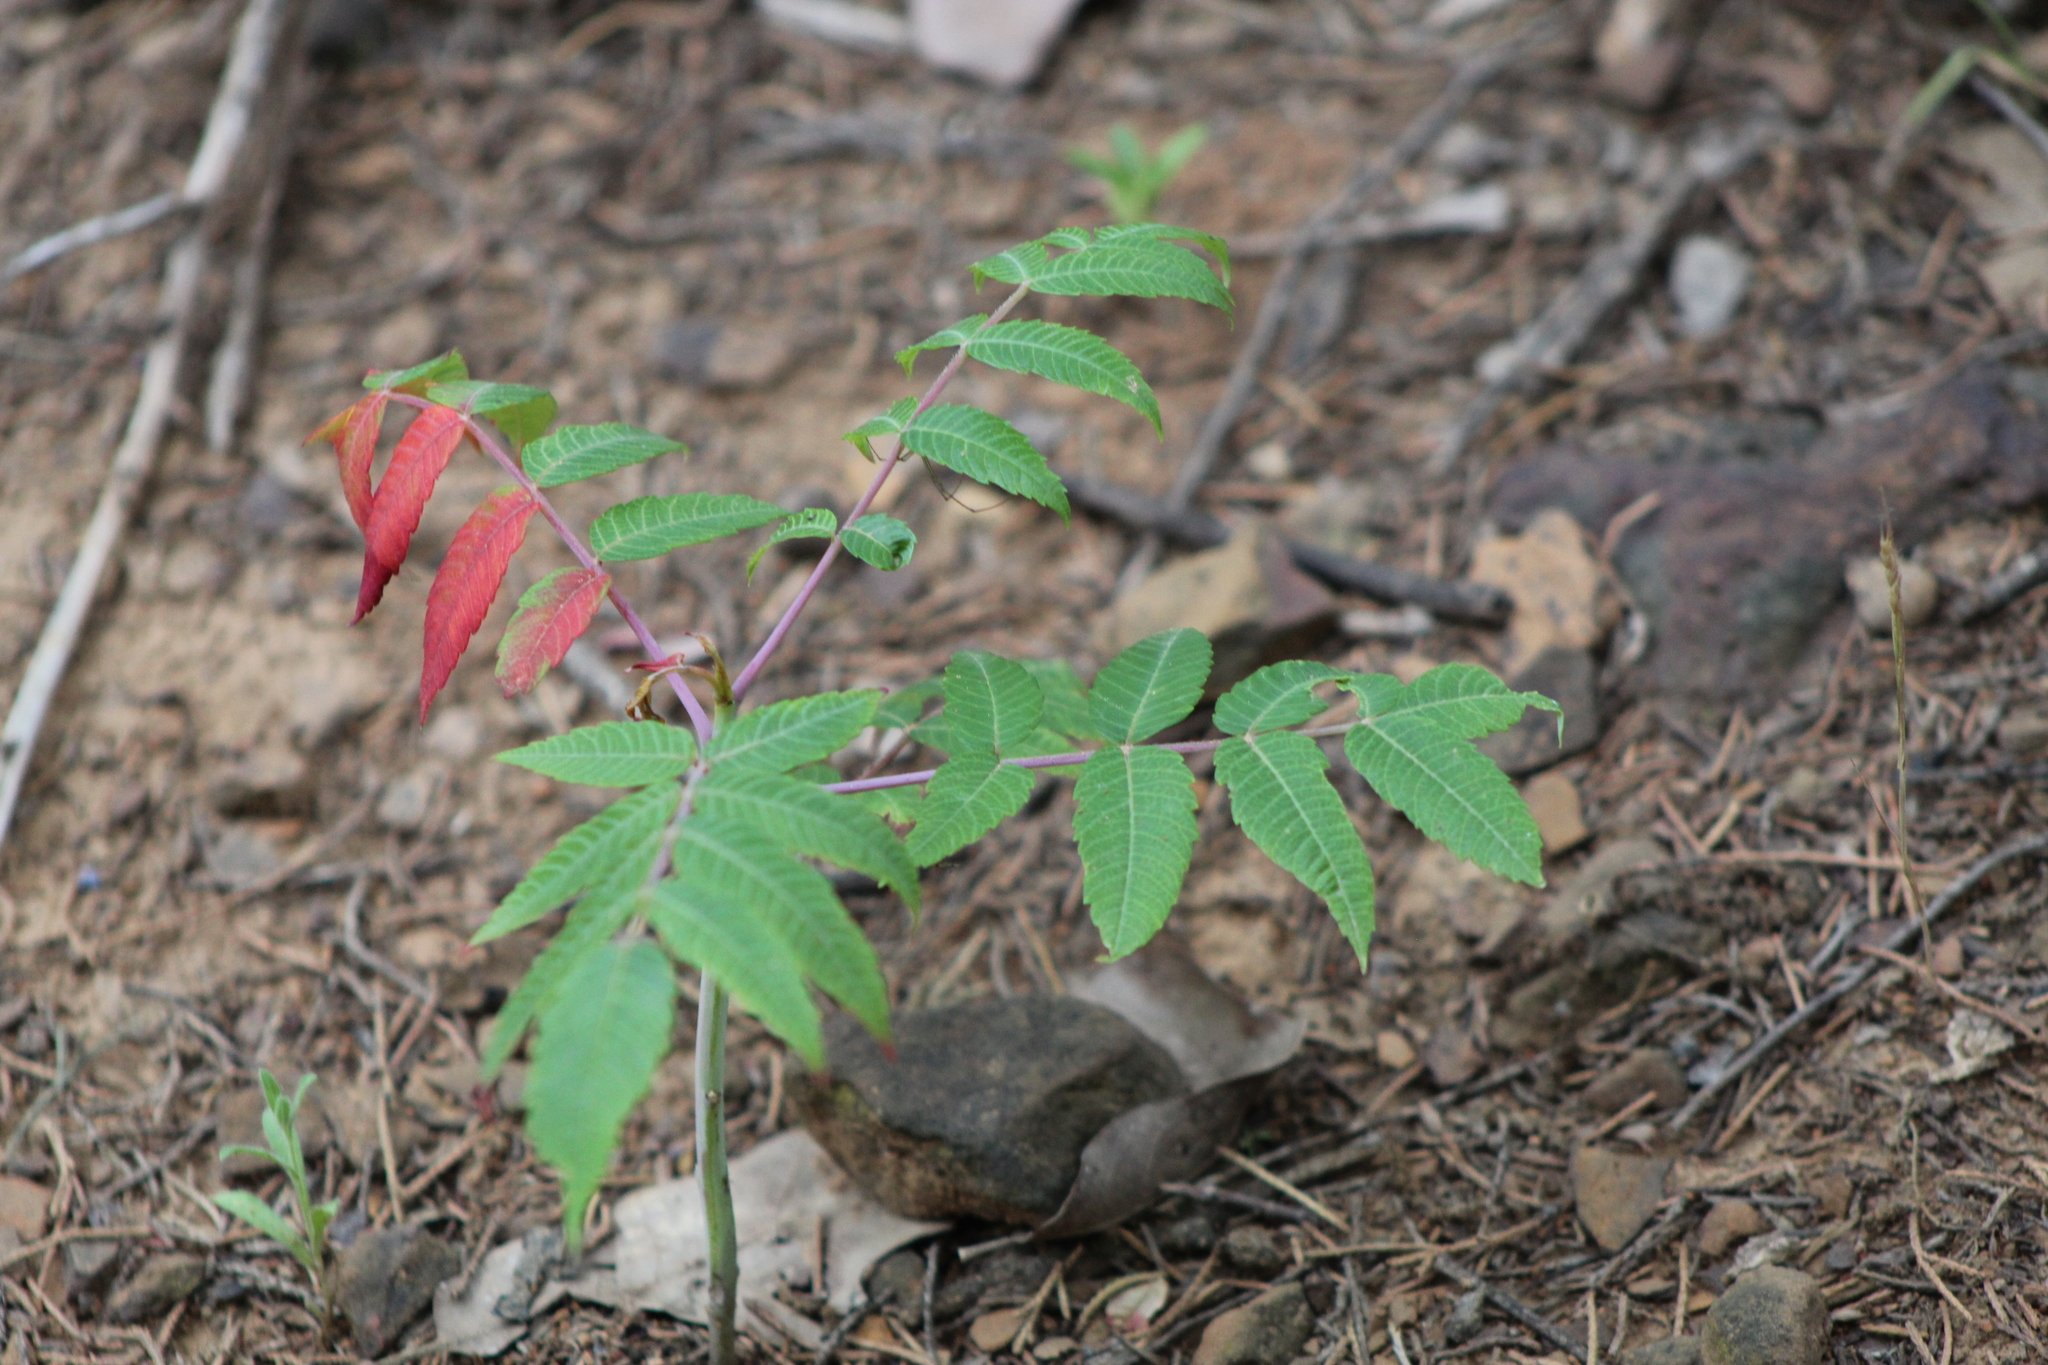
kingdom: Plantae
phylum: Tracheophyta
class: Magnoliopsida
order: Sapindales
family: Anacardiaceae
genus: Rhus
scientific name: Rhus glabra
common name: Scarlet sumac
